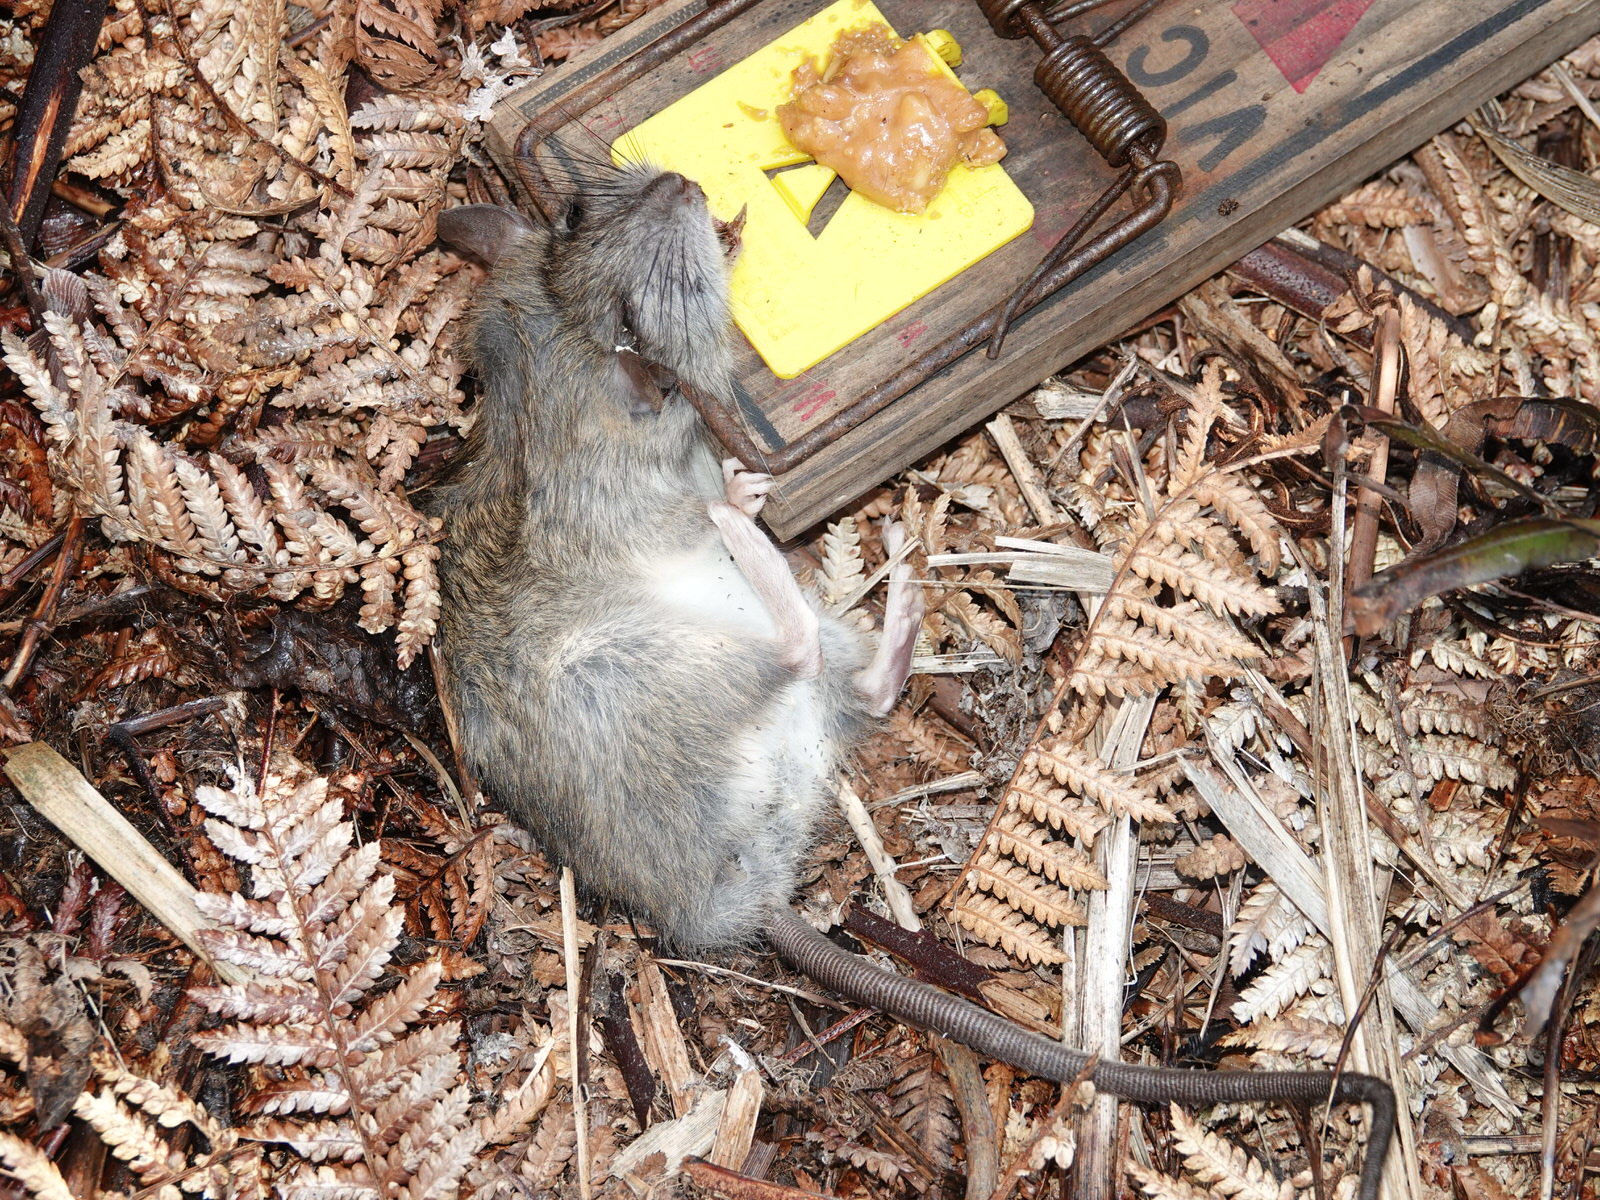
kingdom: Animalia
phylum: Chordata
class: Mammalia
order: Rodentia
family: Muridae
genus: Rattus
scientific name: Rattus rattus
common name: Black rat
